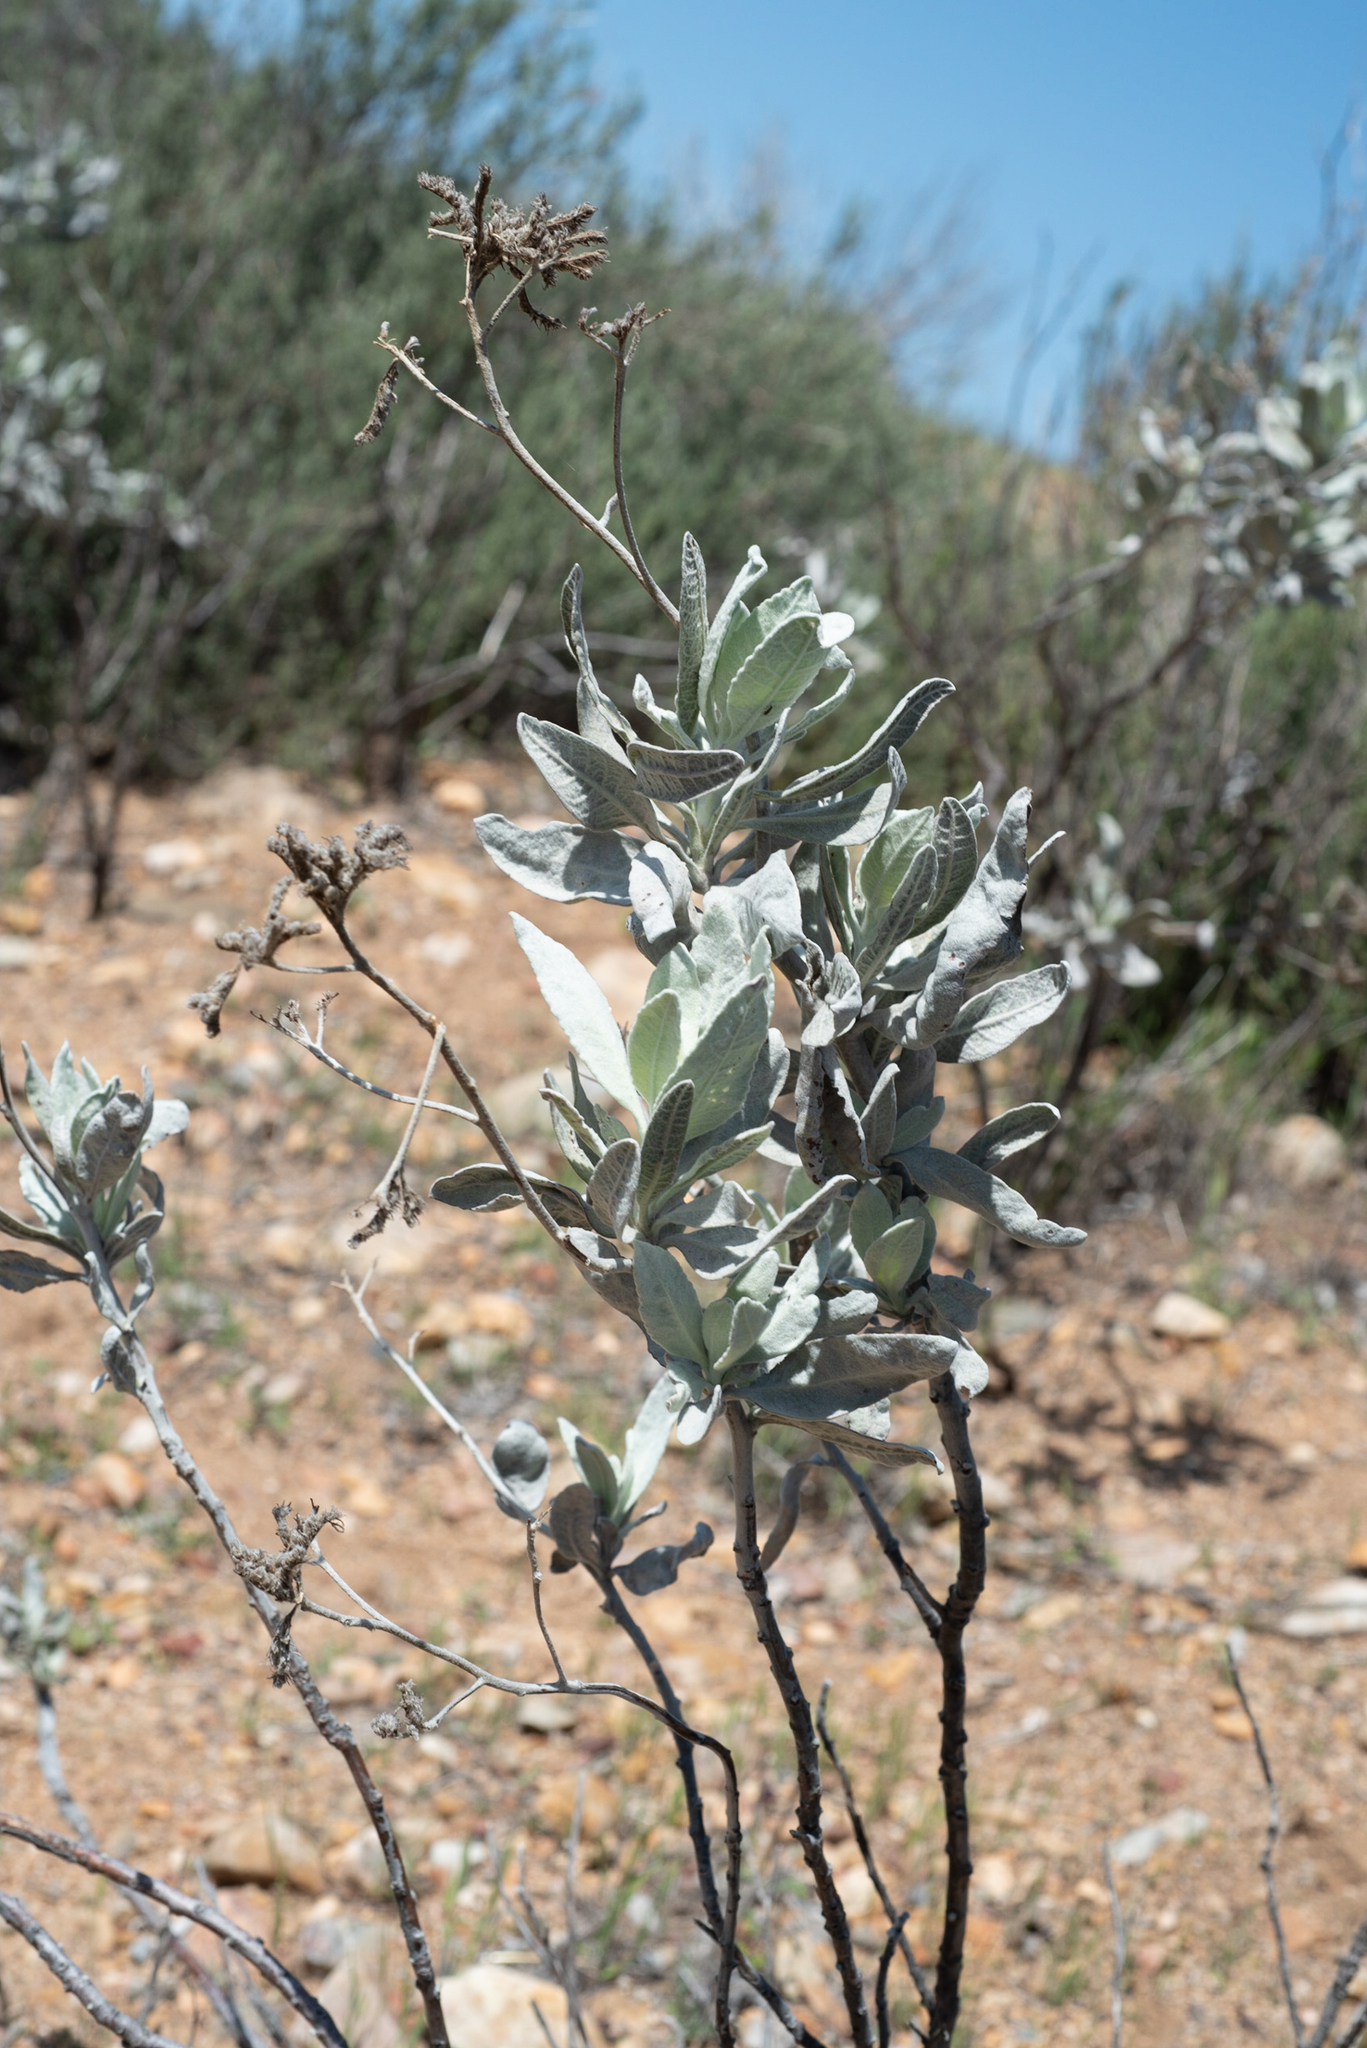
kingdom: Plantae
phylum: Tracheophyta
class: Magnoliopsida
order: Boraginales
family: Namaceae
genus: Eriodictyon
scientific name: Eriodictyon tomentosum
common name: Woolly yerba-santa
